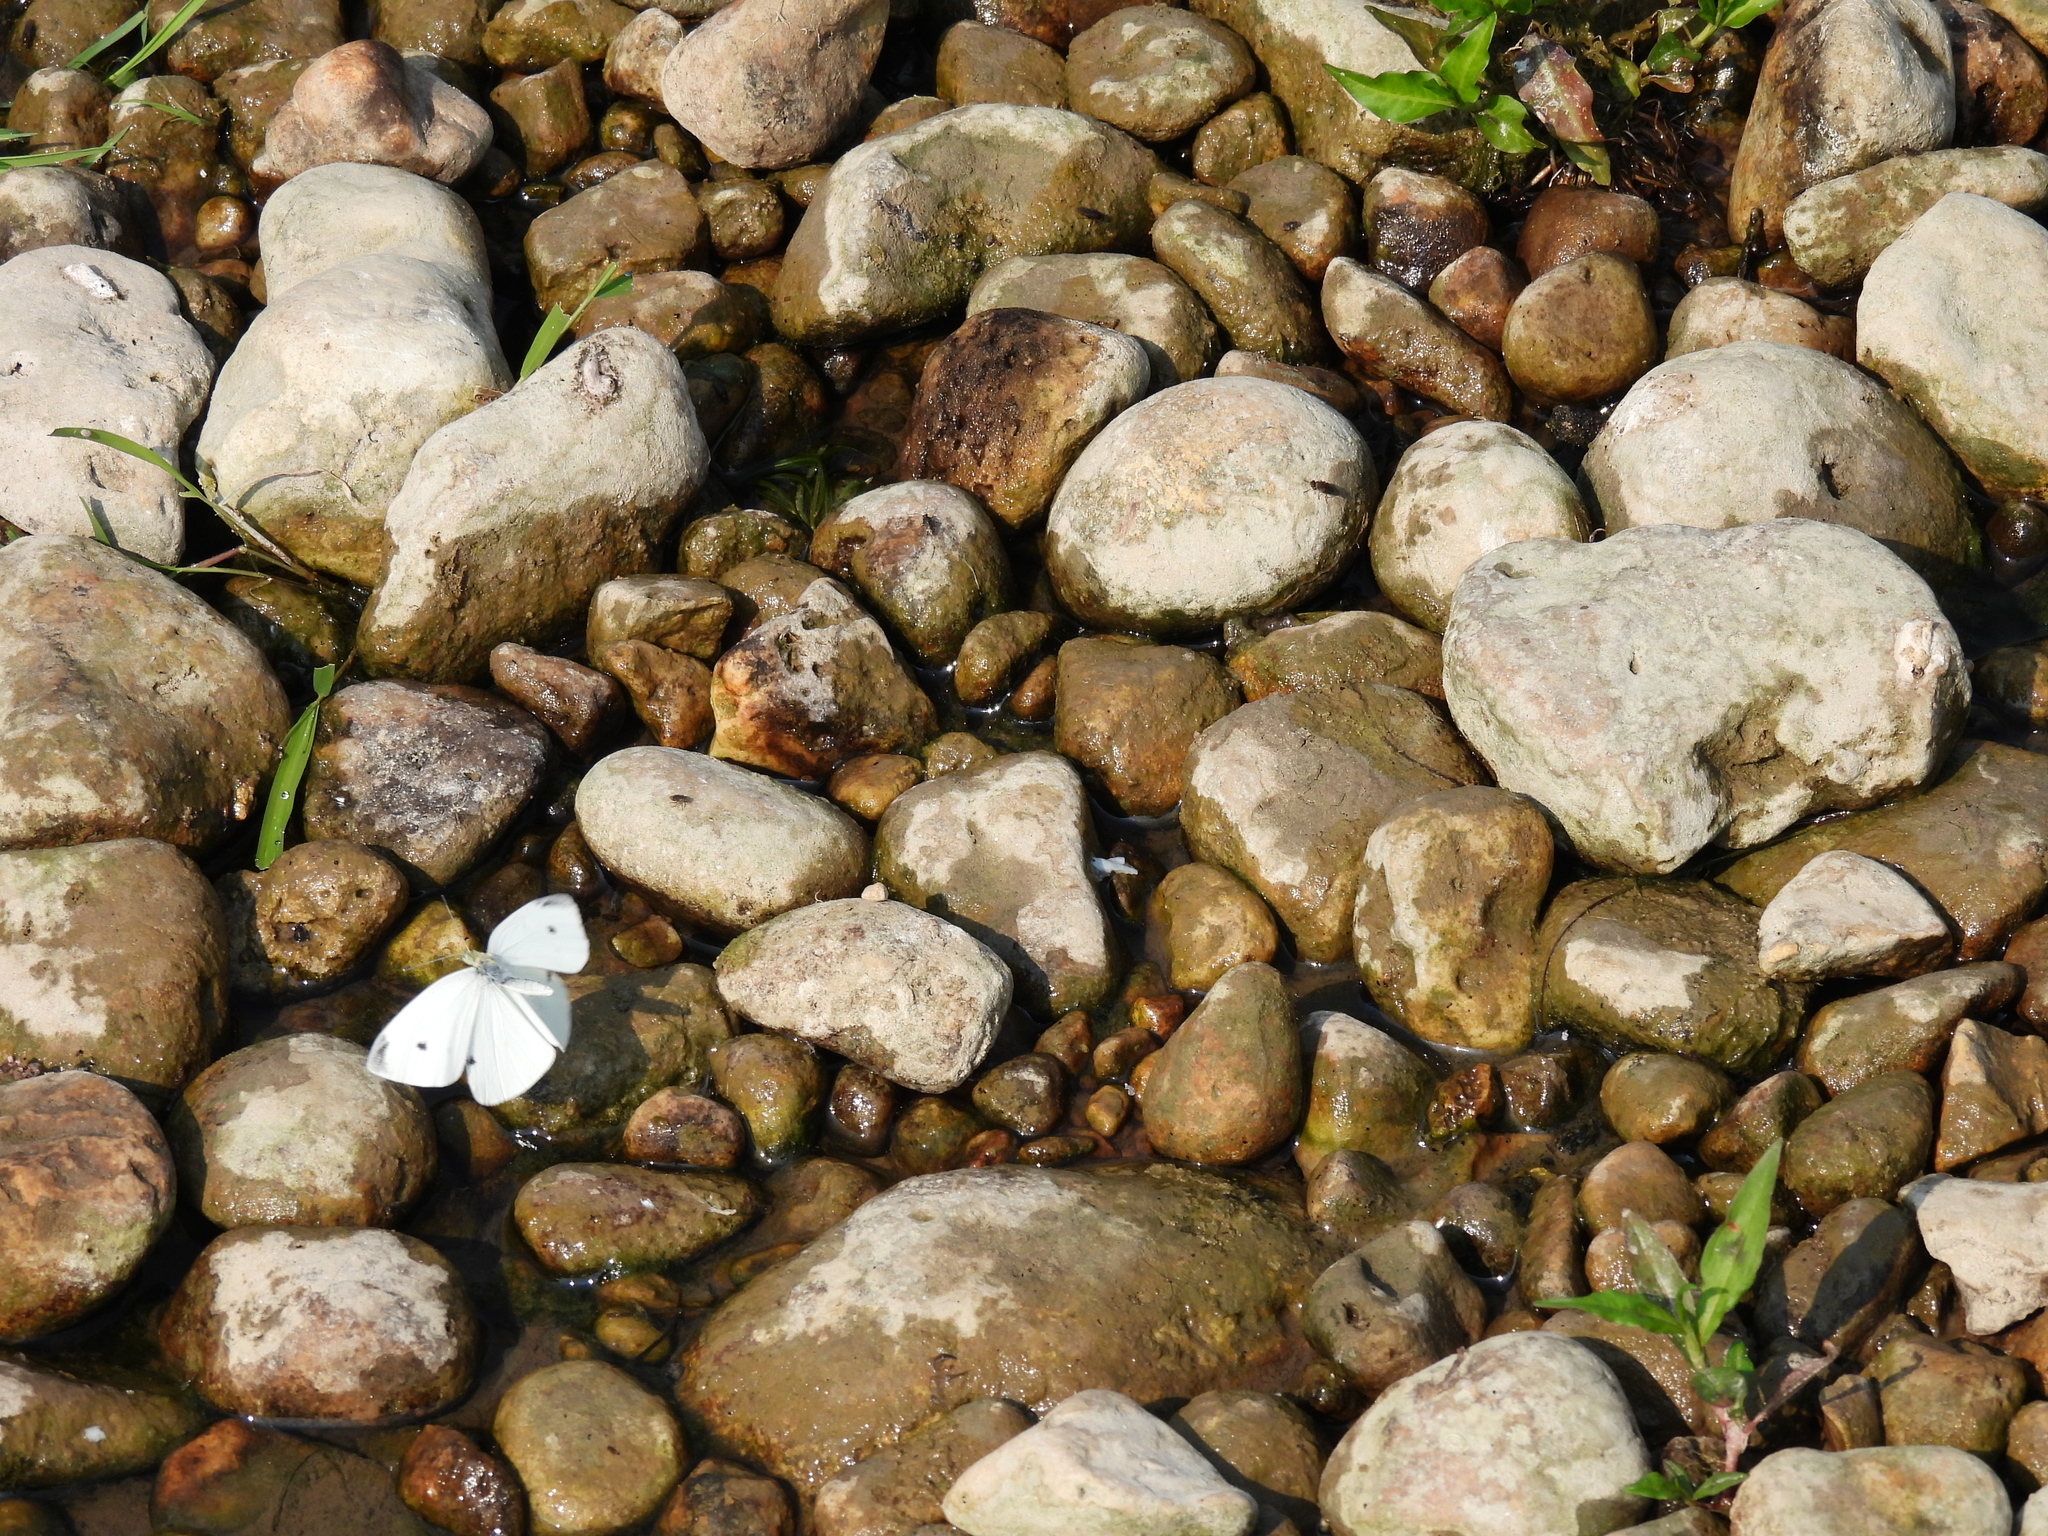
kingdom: Animalia
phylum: Arthropoda
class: Insecta
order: Lepidoptera
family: Pieridae
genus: Pieris
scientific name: Pieris rapae
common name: Small white
